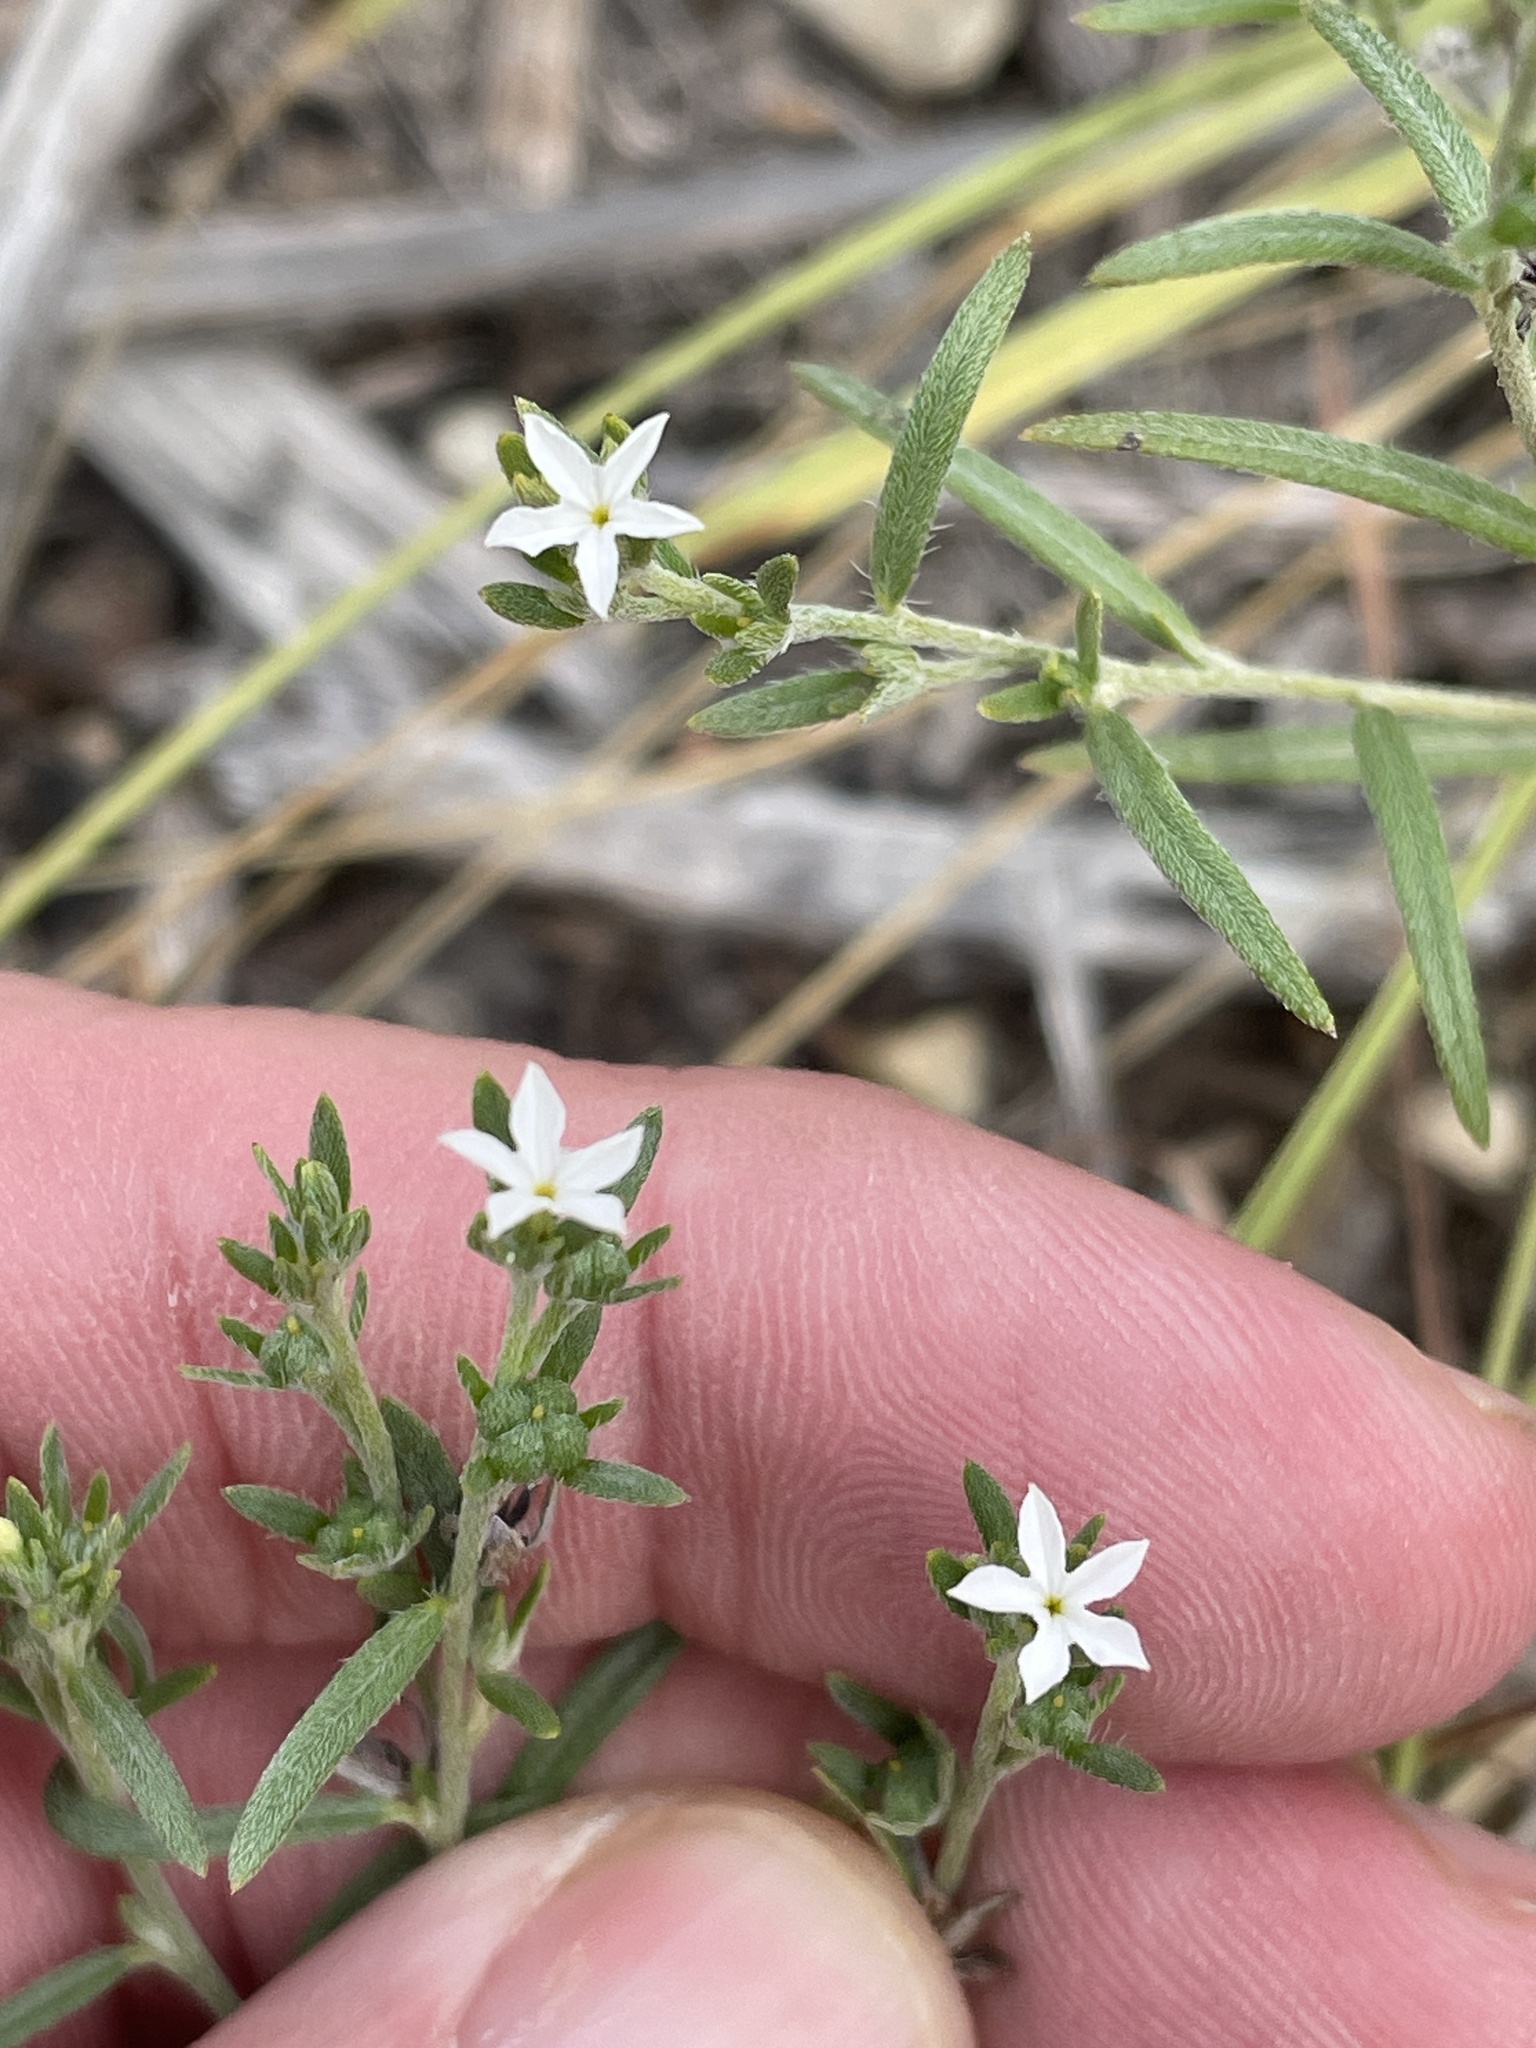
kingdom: Plantae
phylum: Tracheophyta
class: Magnoliopsida
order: Boraginales
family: Heliotropiaceae
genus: Euploca
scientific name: Euploca tenella
